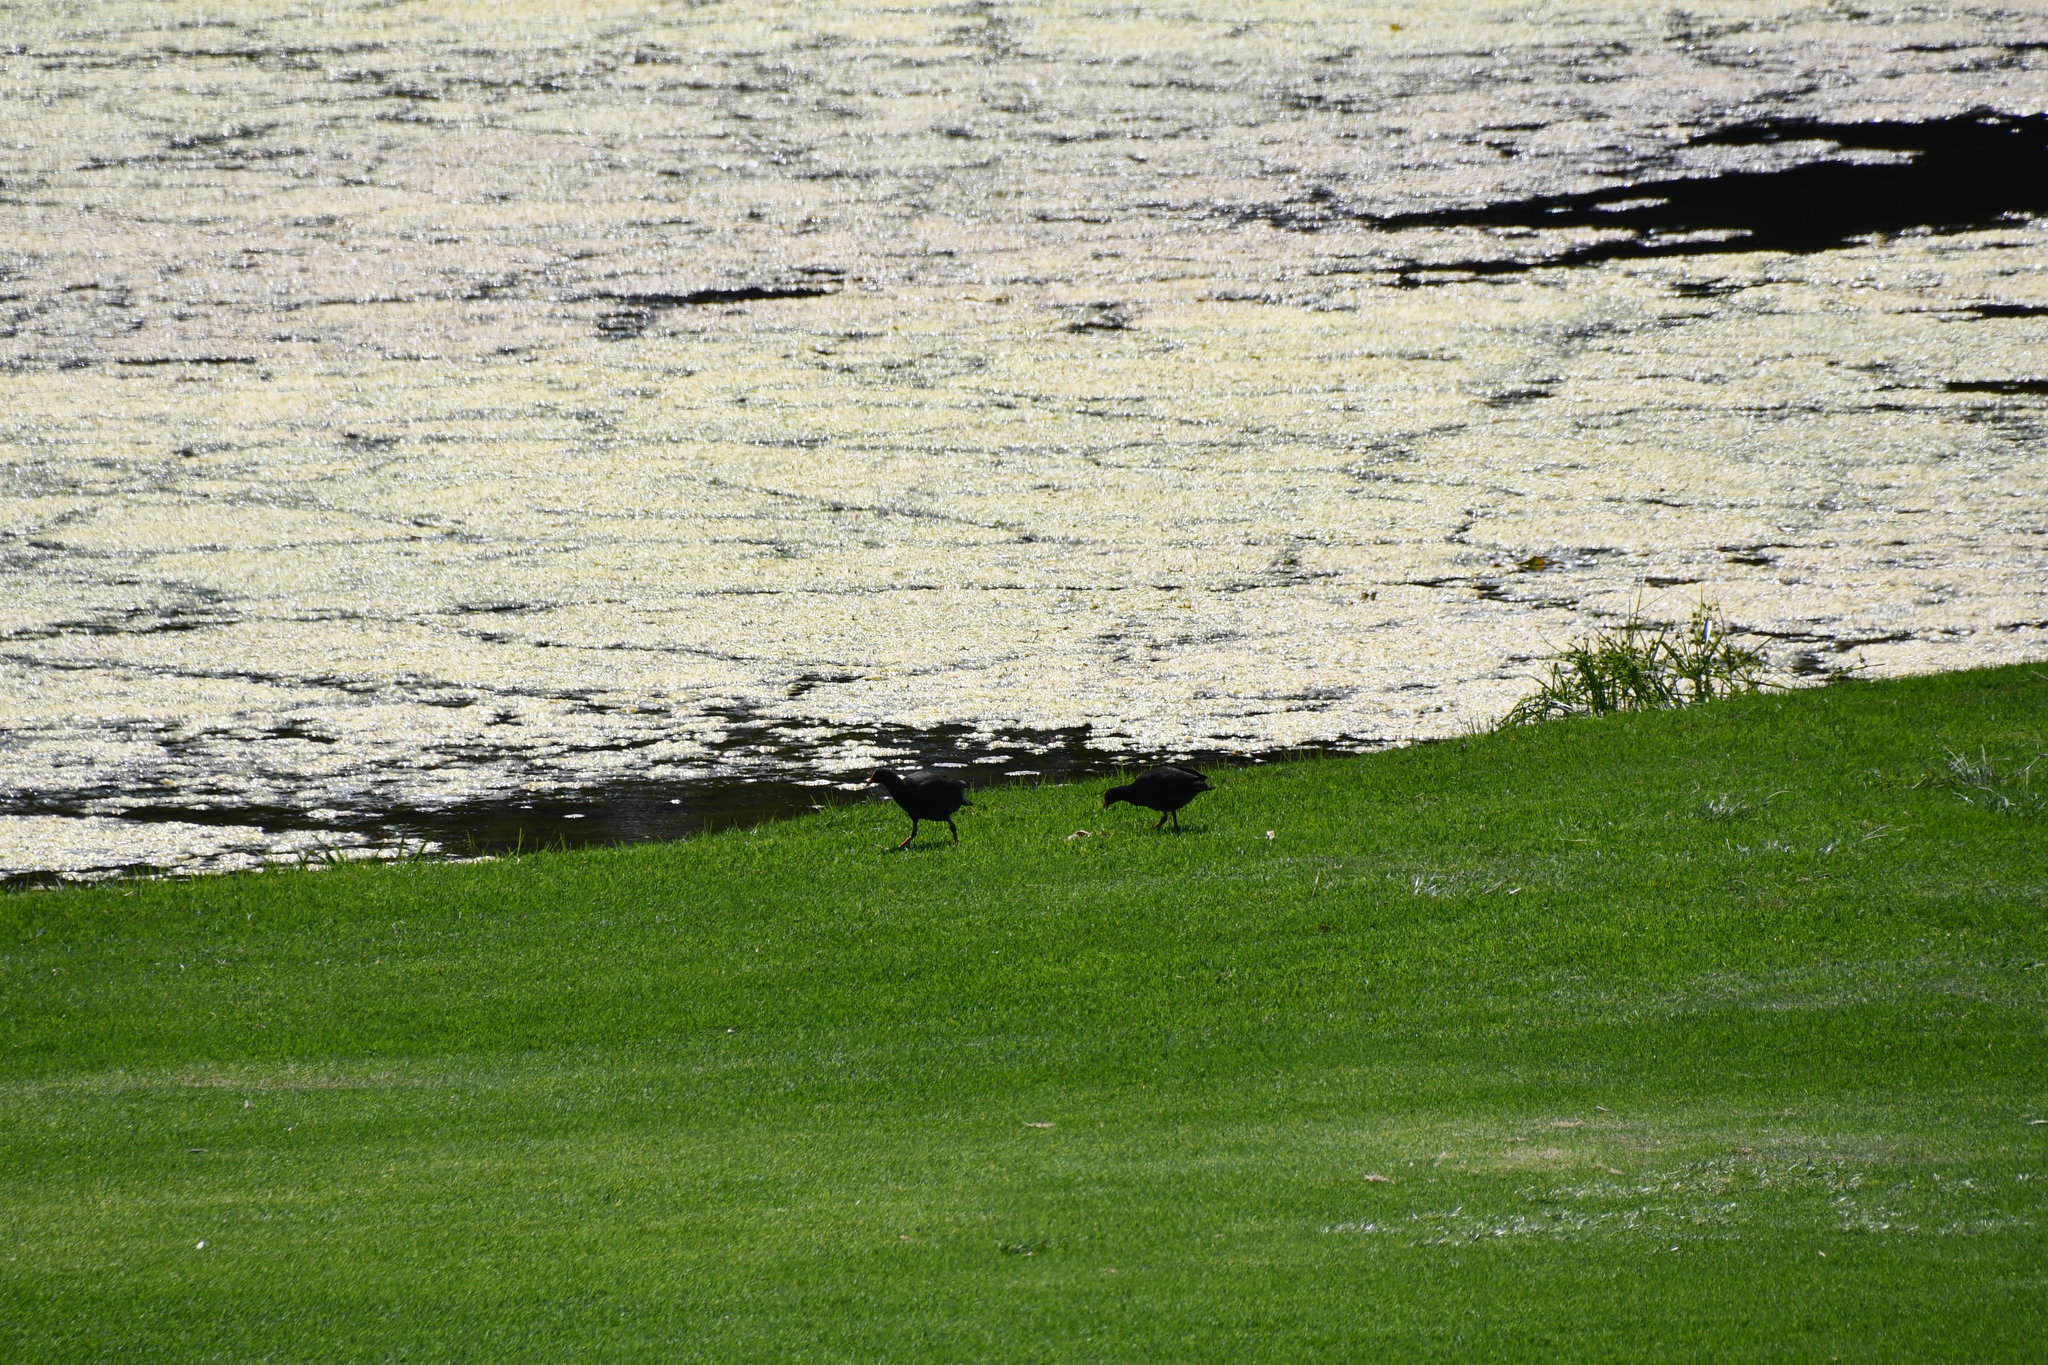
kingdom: Animalia
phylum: Chordata
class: Aves
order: Gruiformes
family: Rallidae
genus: Gallinula
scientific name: Gallinula tenebrosa
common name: Dusky moorhen
